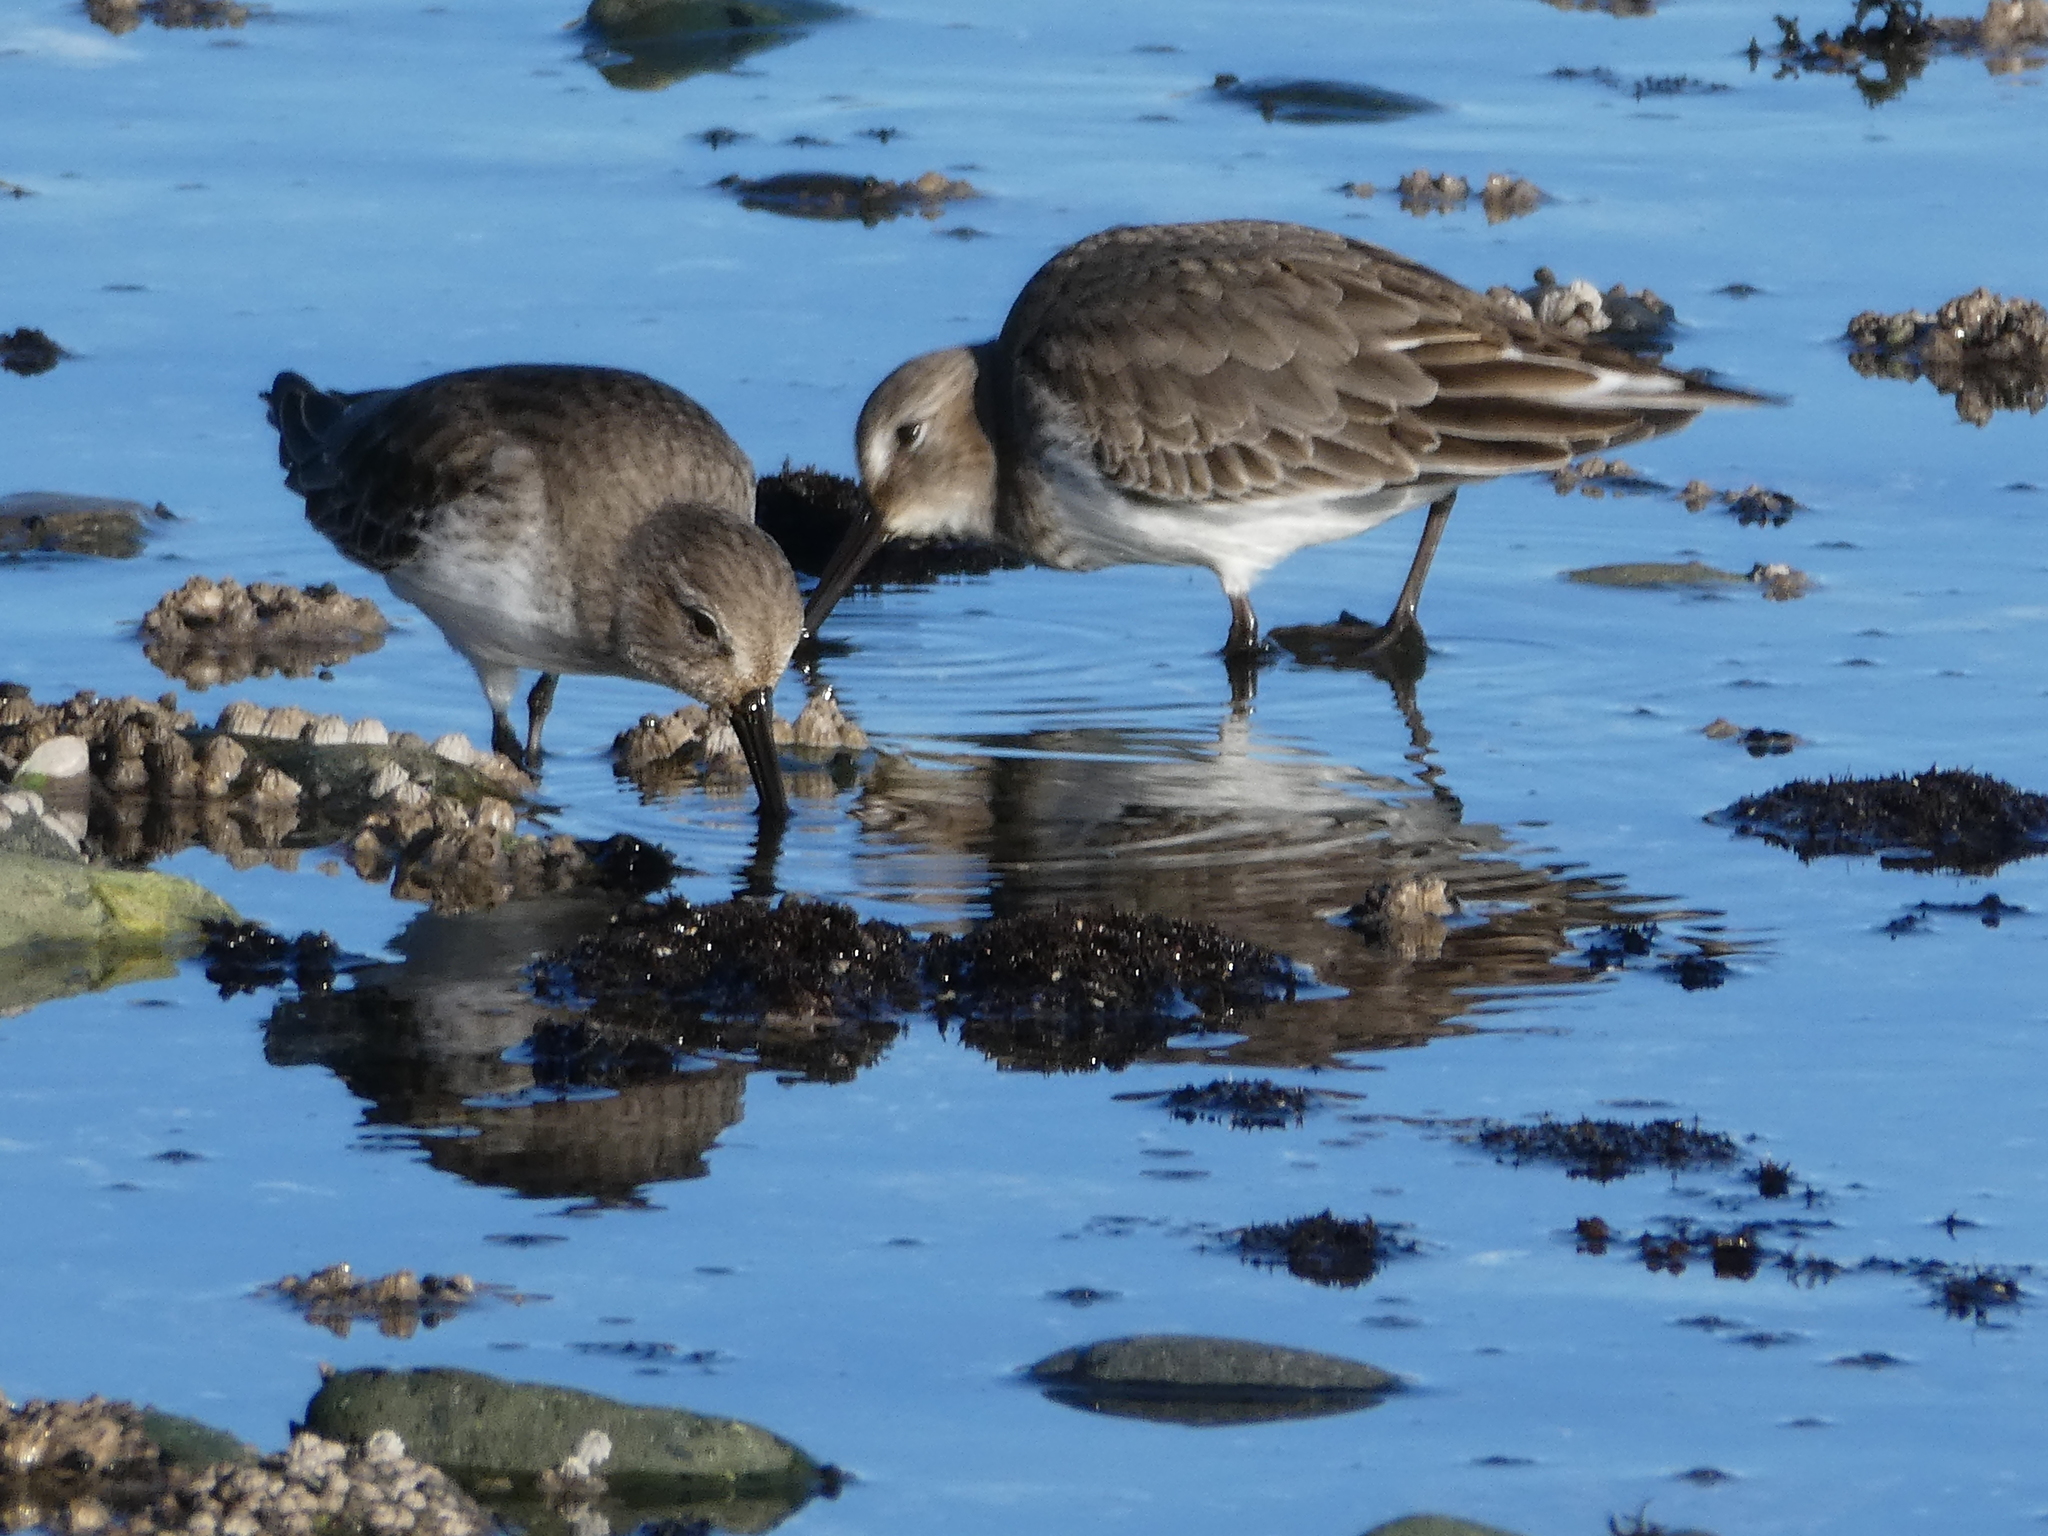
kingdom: Animalia
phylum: Chordata
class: Aves
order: Charadriiformes
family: Scolopacidae
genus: Calidris
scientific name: Calidris alpina
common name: Dunlin
